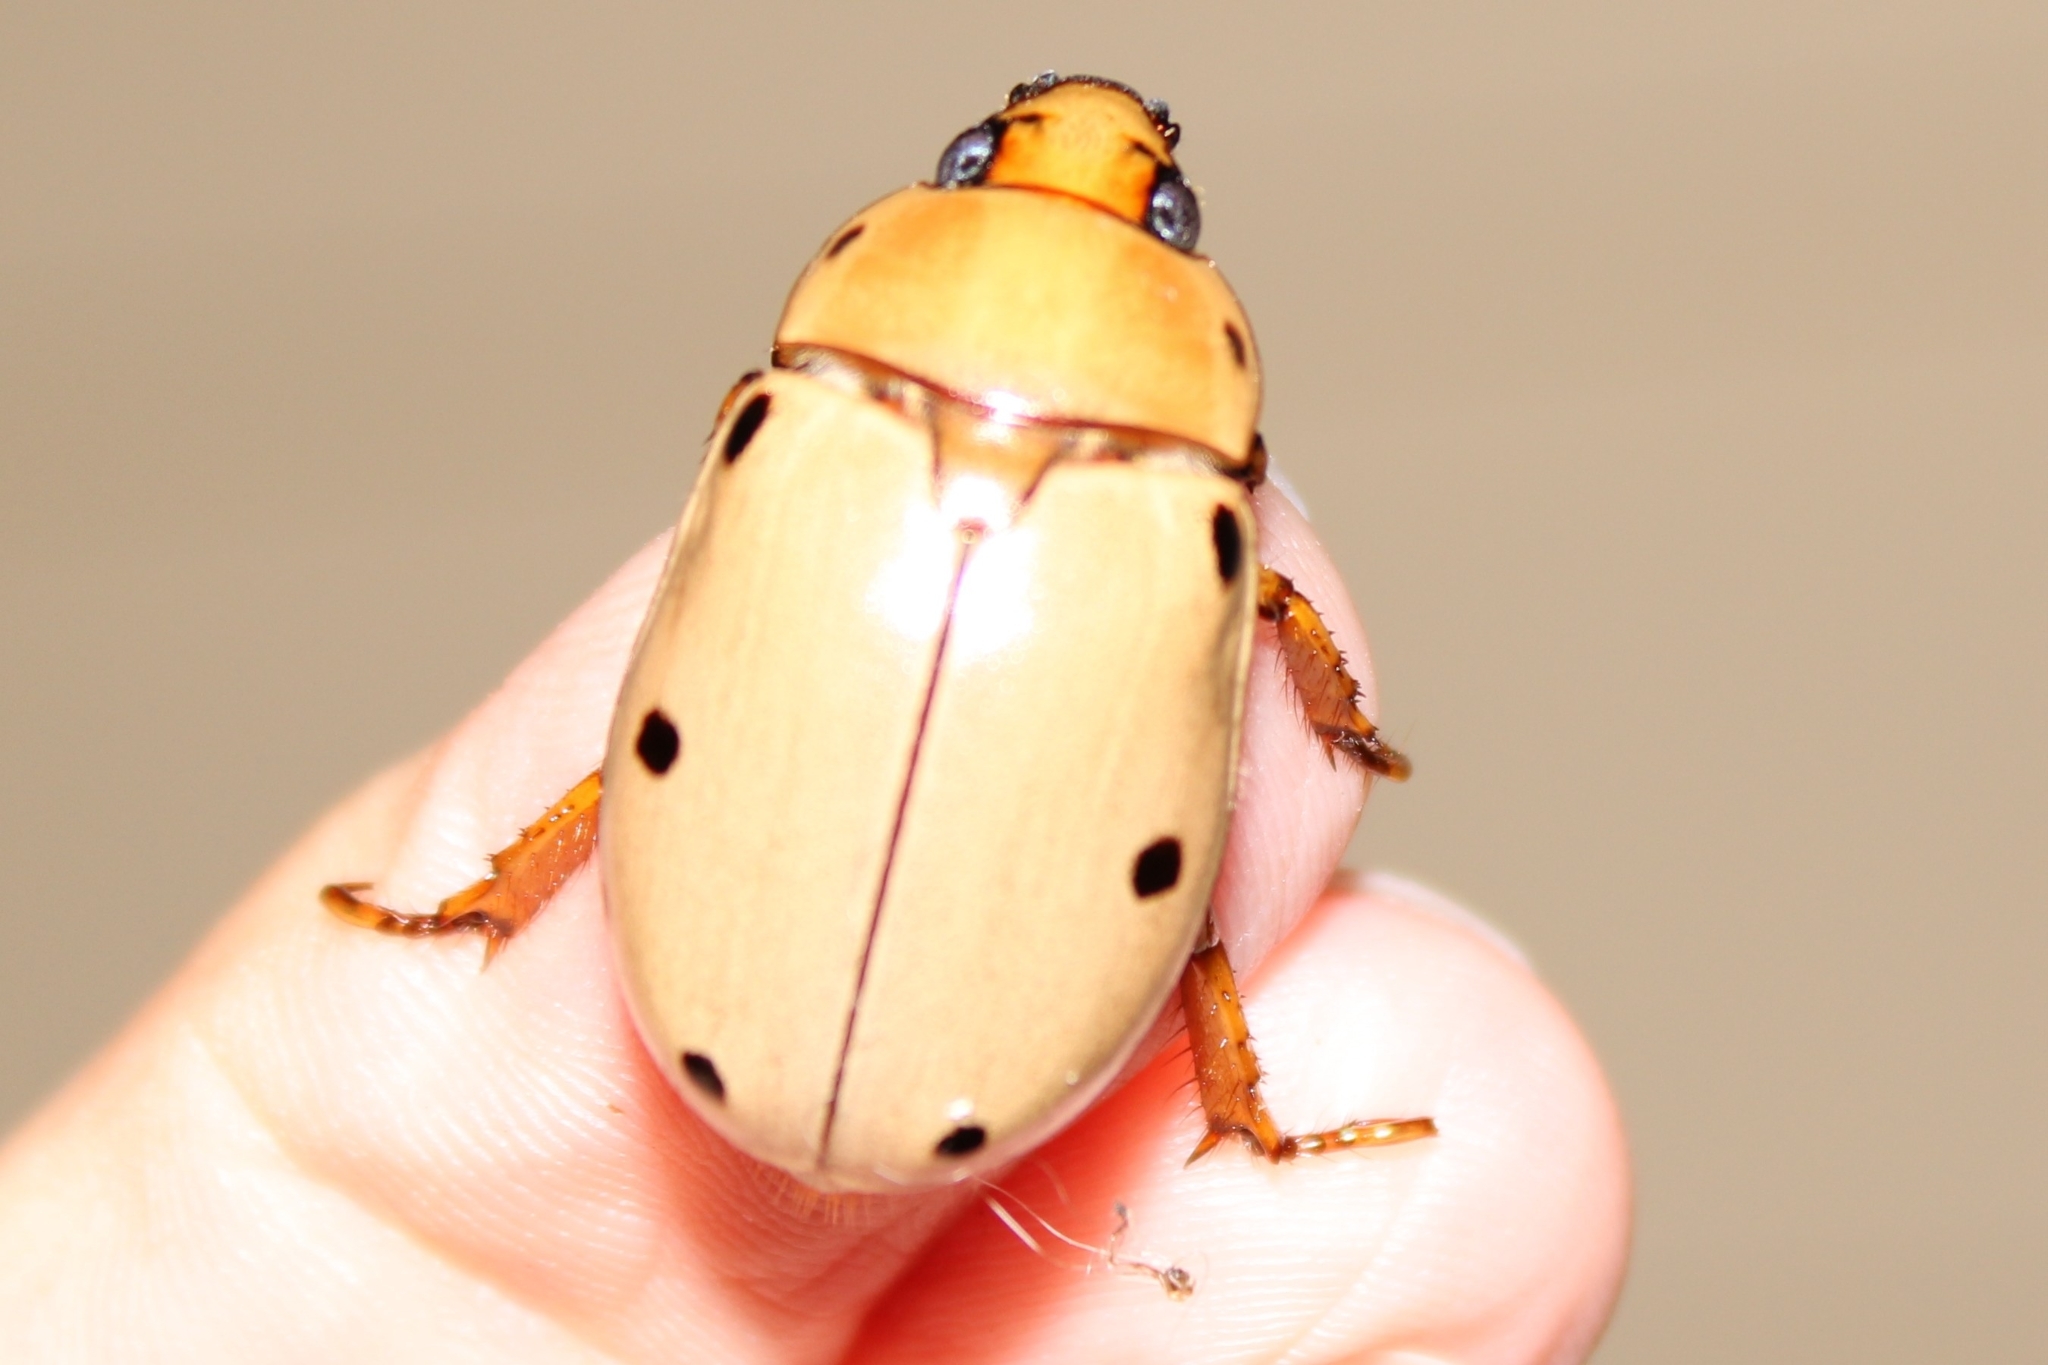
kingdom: Animalia
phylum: Arthropoda
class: Insecta
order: Coleoptera
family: Scarabaeidae
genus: Pelidnota
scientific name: Pelidnota punctata
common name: Grapevine beetle
